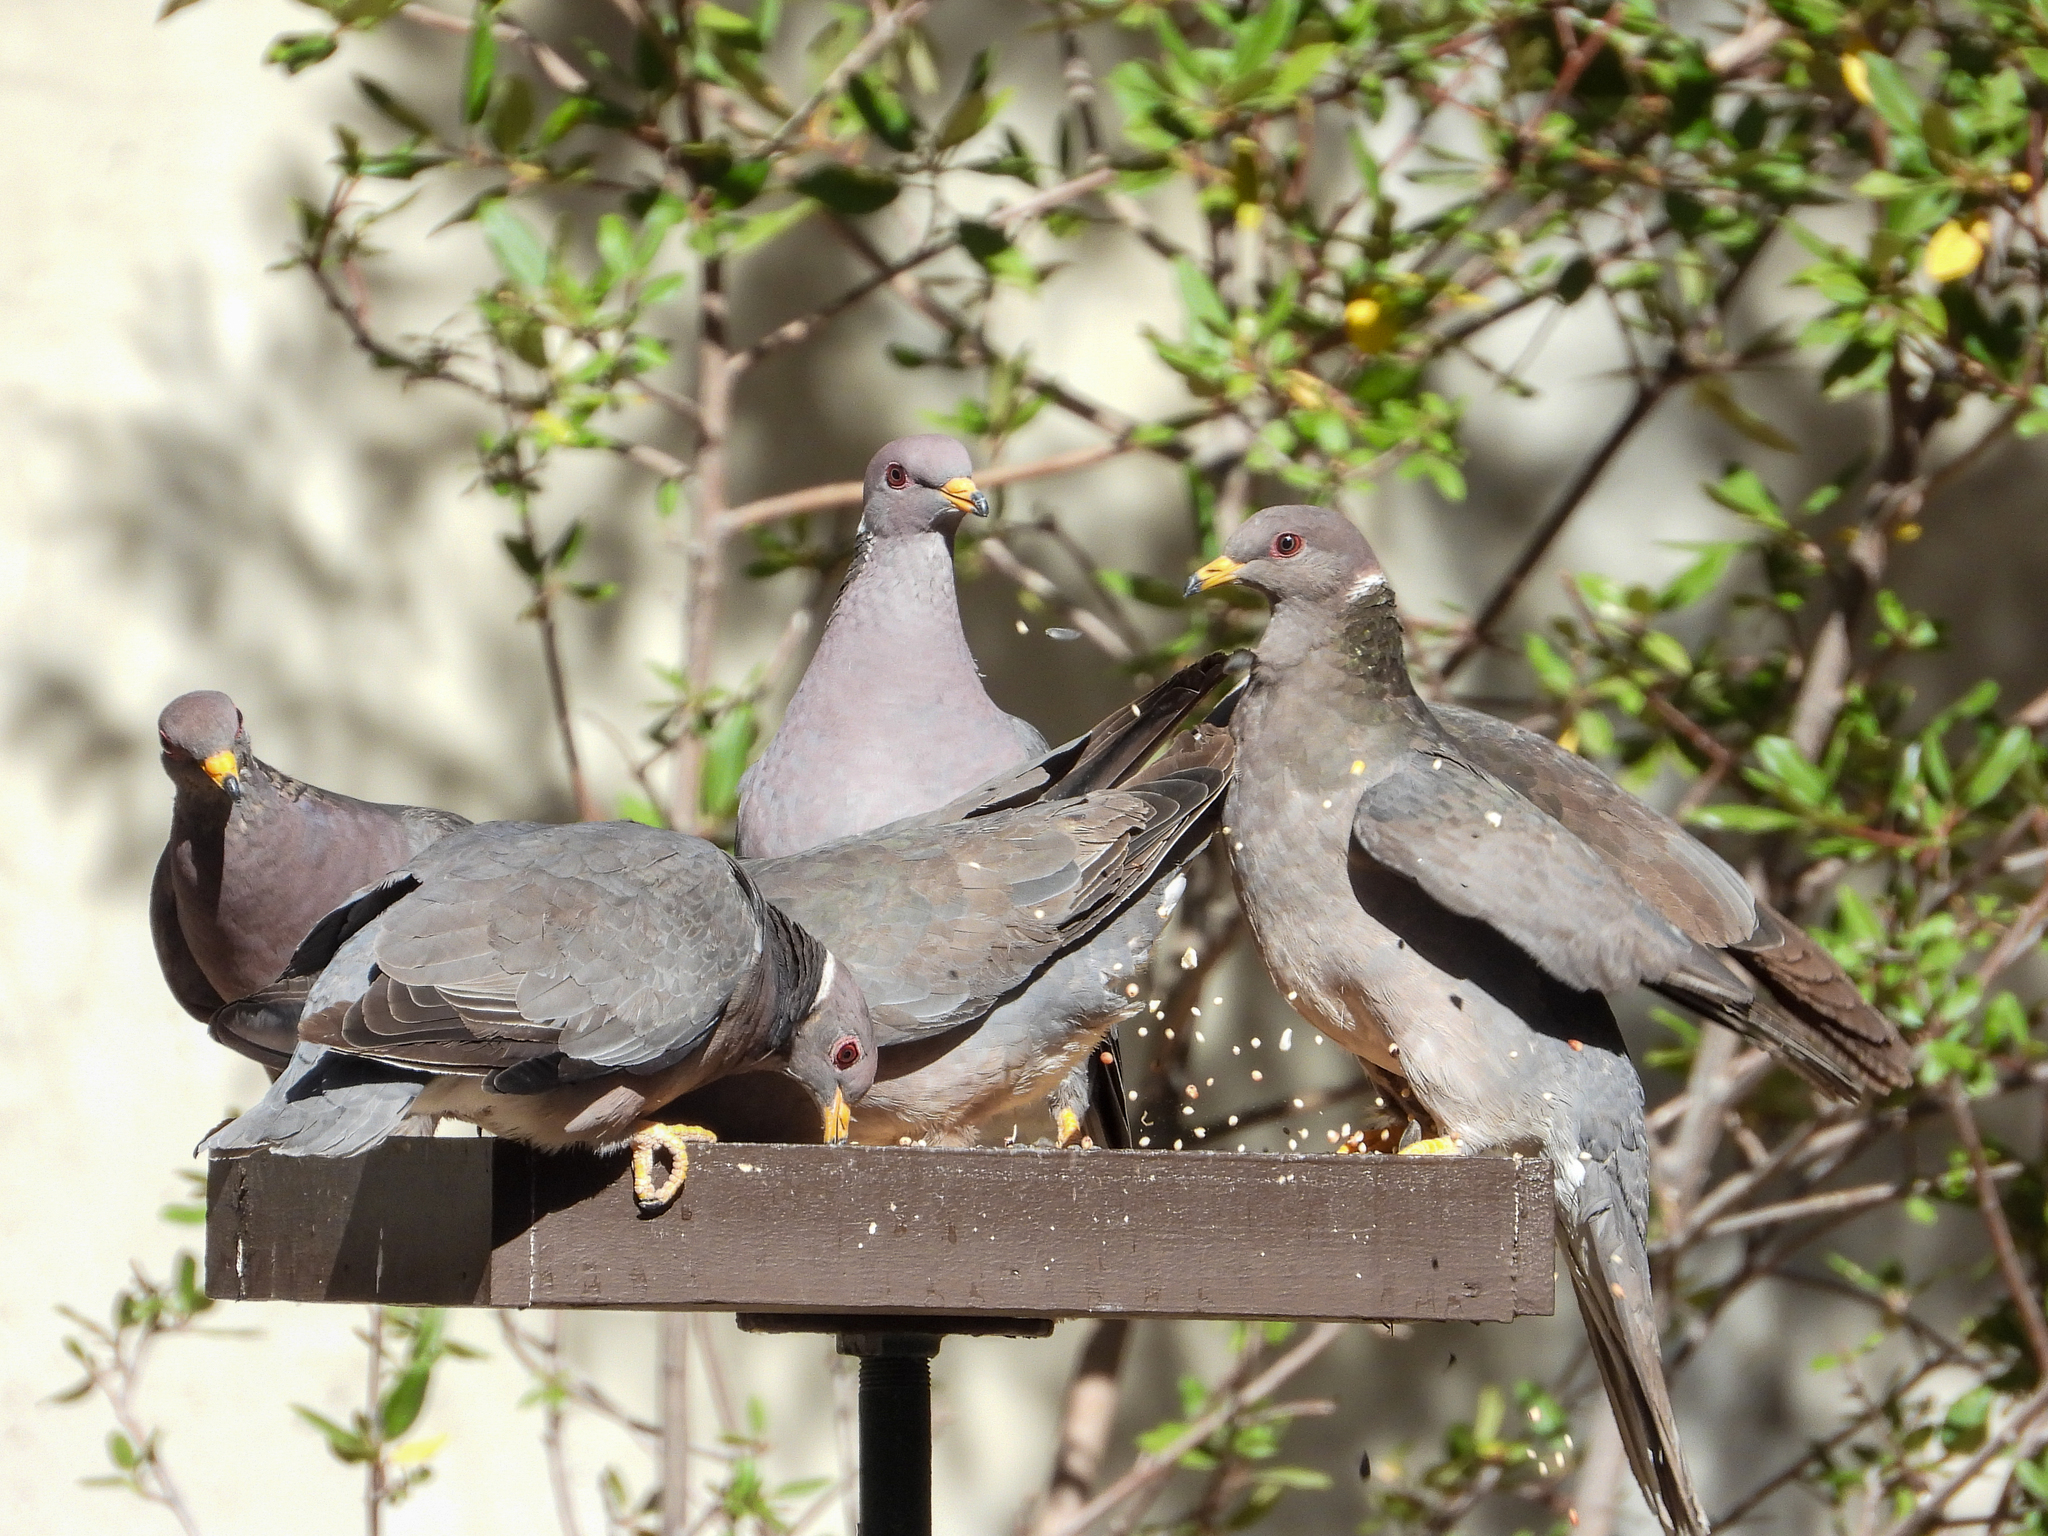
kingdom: Animalia
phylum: Chordata
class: Aves
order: Columbiformes
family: Columbidae
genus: Patagioenas
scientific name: Patagioenas fasciata
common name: Band-tailed pigeon
